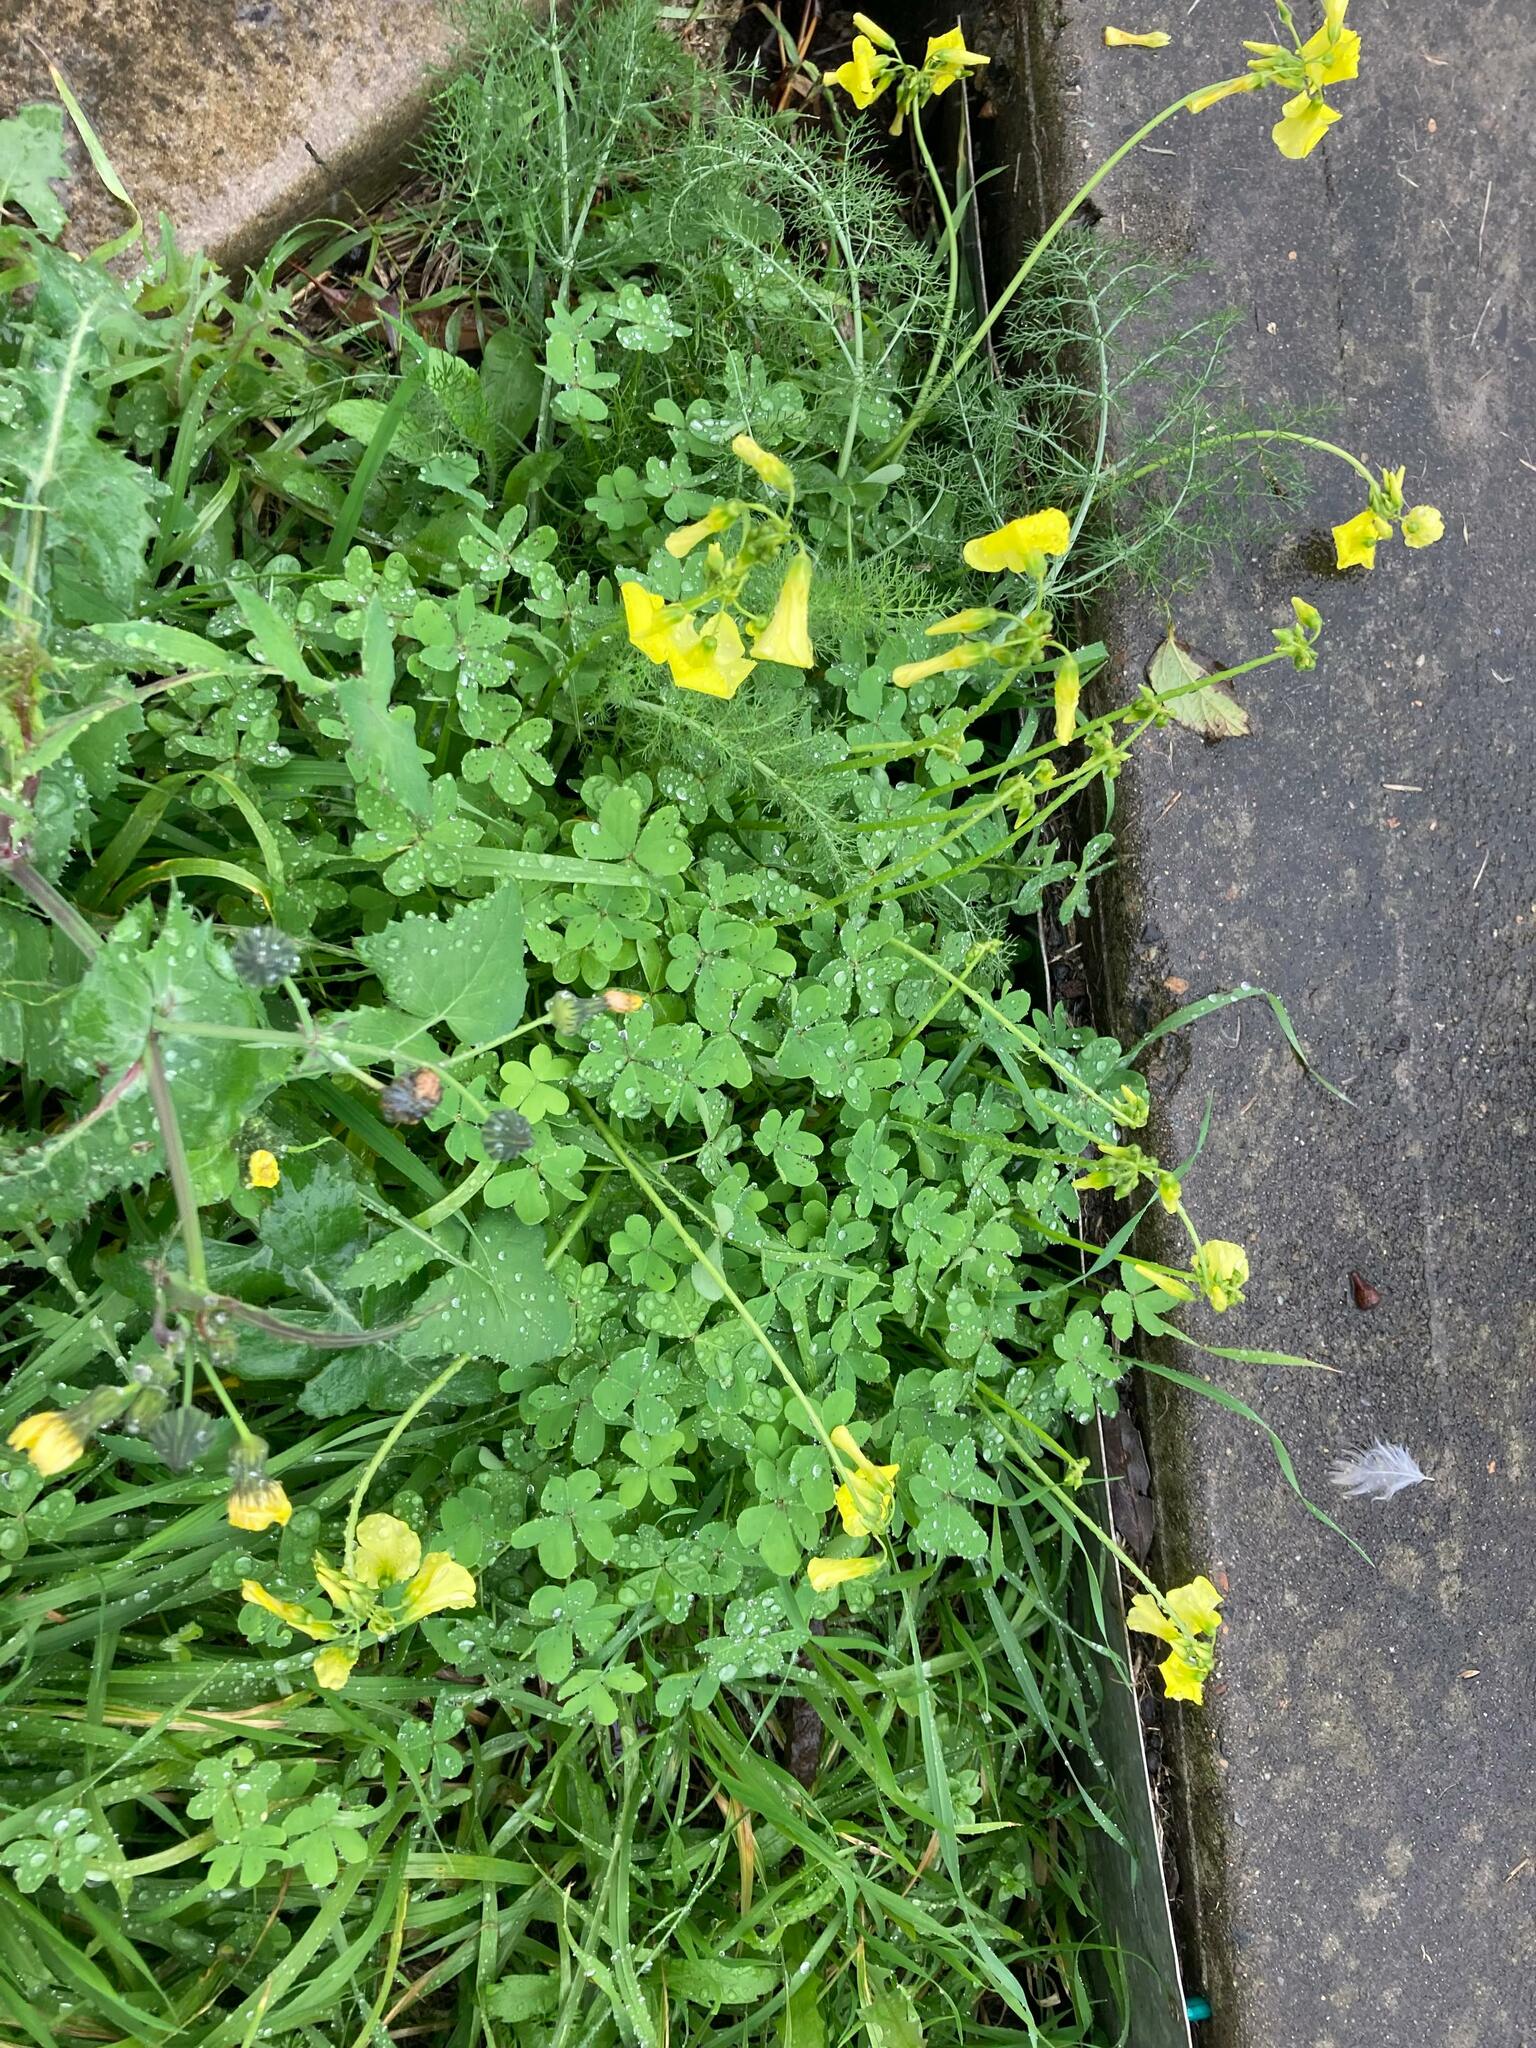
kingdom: Plantae
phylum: Tracheophyta
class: Magnoliopsida
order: Oxalidales
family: Oxalidaceae
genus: Oxalis
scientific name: Oxalis pes-caprae
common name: Bermuda-buttercup
